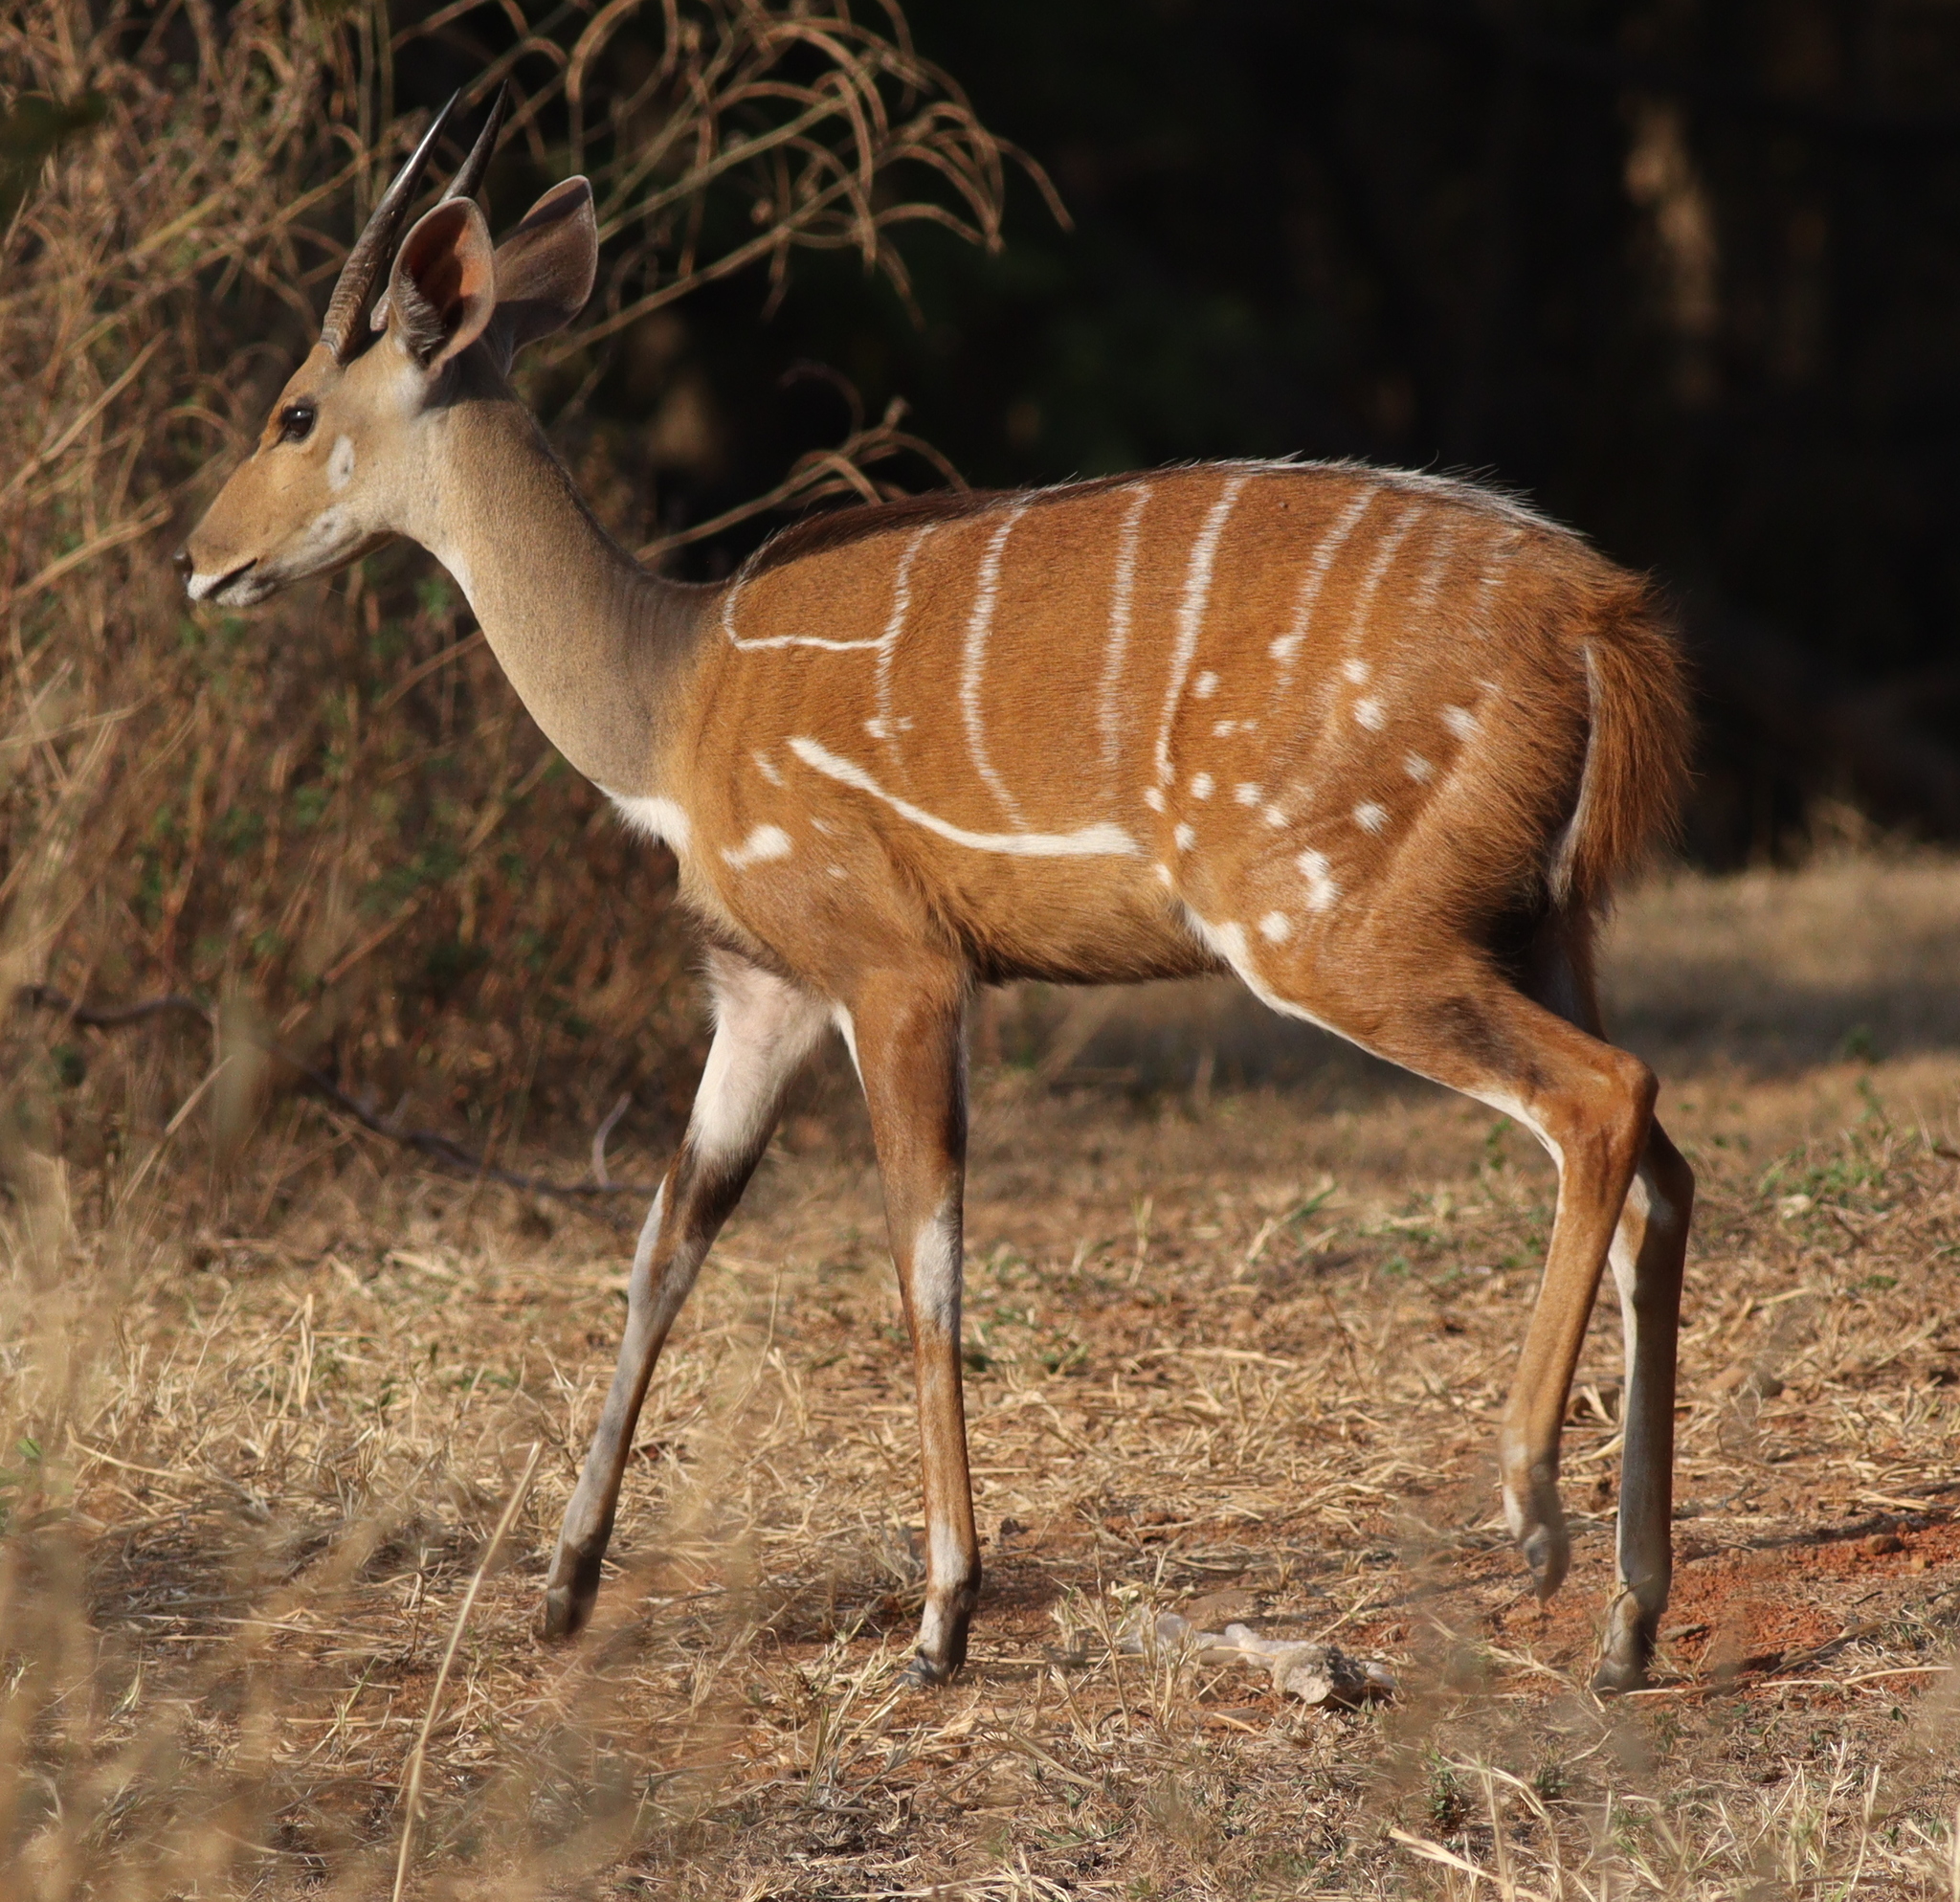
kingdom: Animalia
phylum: Chordata
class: Mammalia
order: Artiodactyla
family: Bovidae
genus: Tragelaphus
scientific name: Tragelaphus scriptus
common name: Bushbuck
